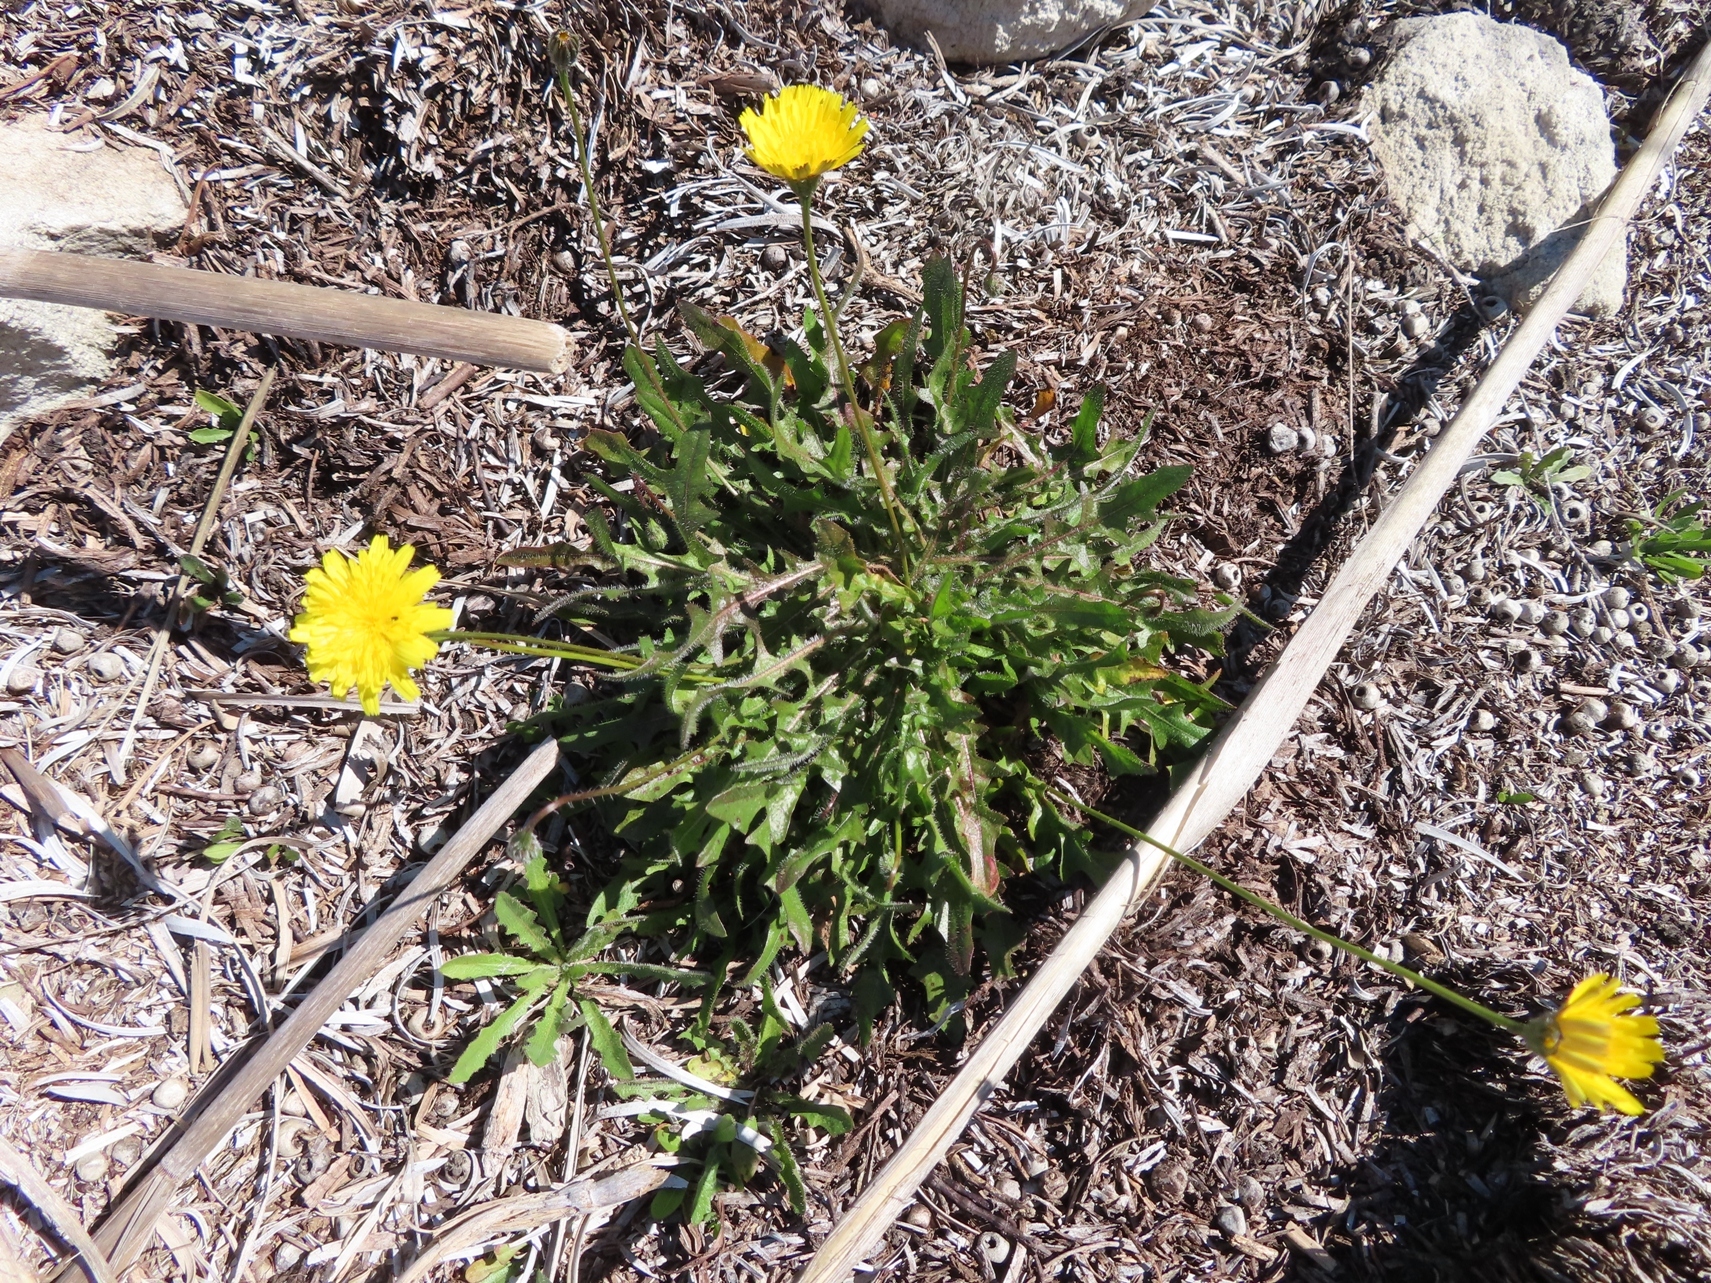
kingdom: Plantae
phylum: Tracheophyta
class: Magnoliopsida
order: Asterales
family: Asteraceae
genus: Hypochaeris
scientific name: Hypochaeris radicata
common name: Flatweed
